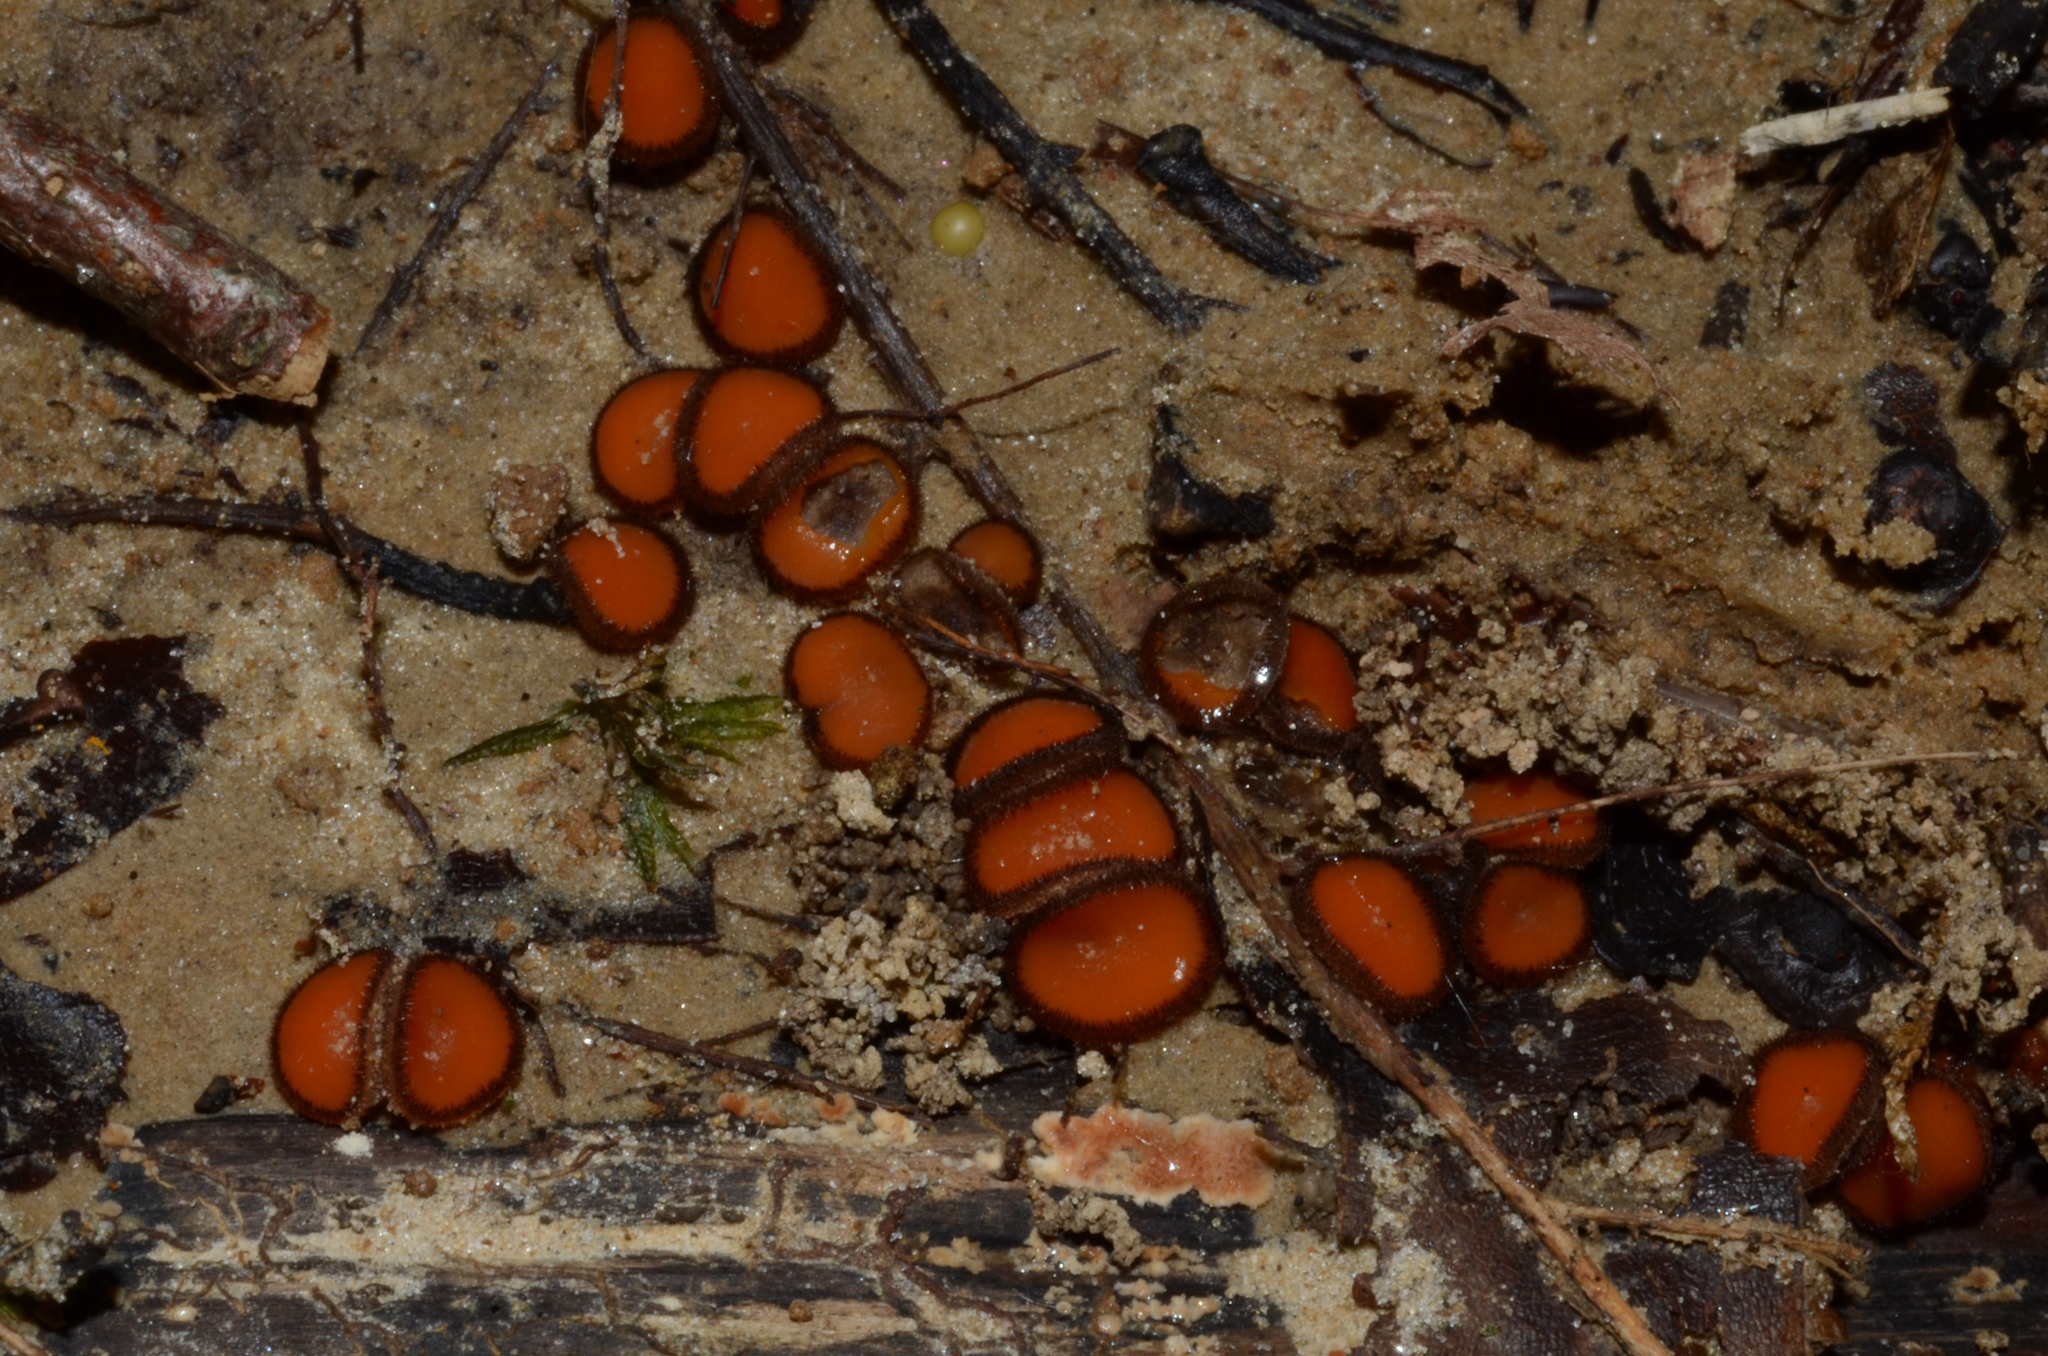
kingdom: Fungi
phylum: Ascomycota
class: Pezizomycetes
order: Pezizales
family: Pyronemataceae
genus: Scutellinia
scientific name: Scutellinia
